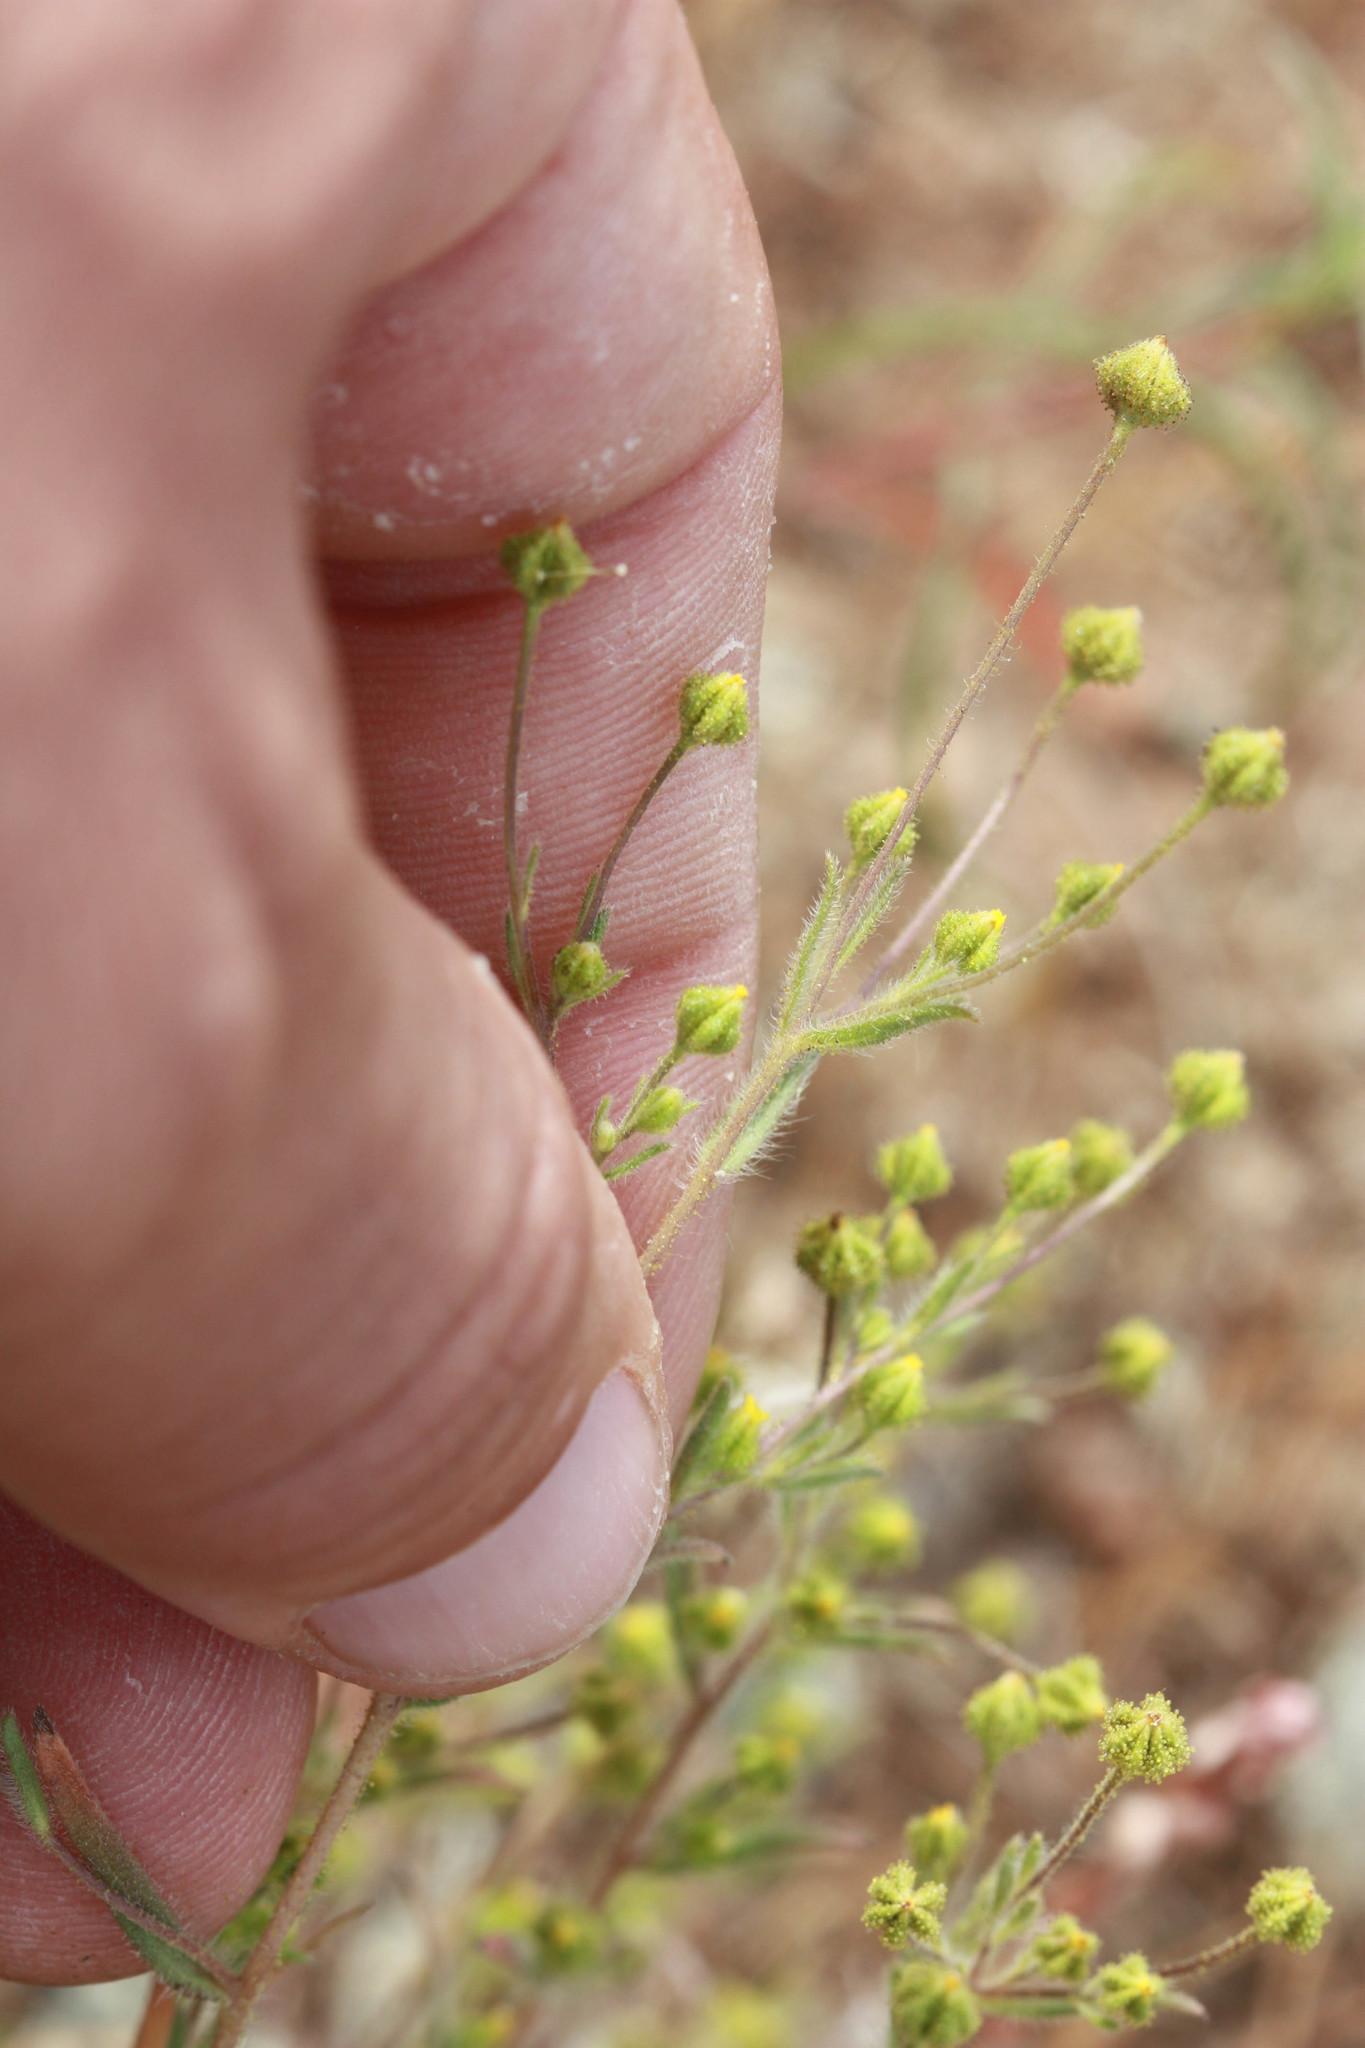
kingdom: Plantae
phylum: Tracheophyta
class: Magnoliopsida
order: Asterales
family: Asteraceae
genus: Madia
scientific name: Madia exigua
